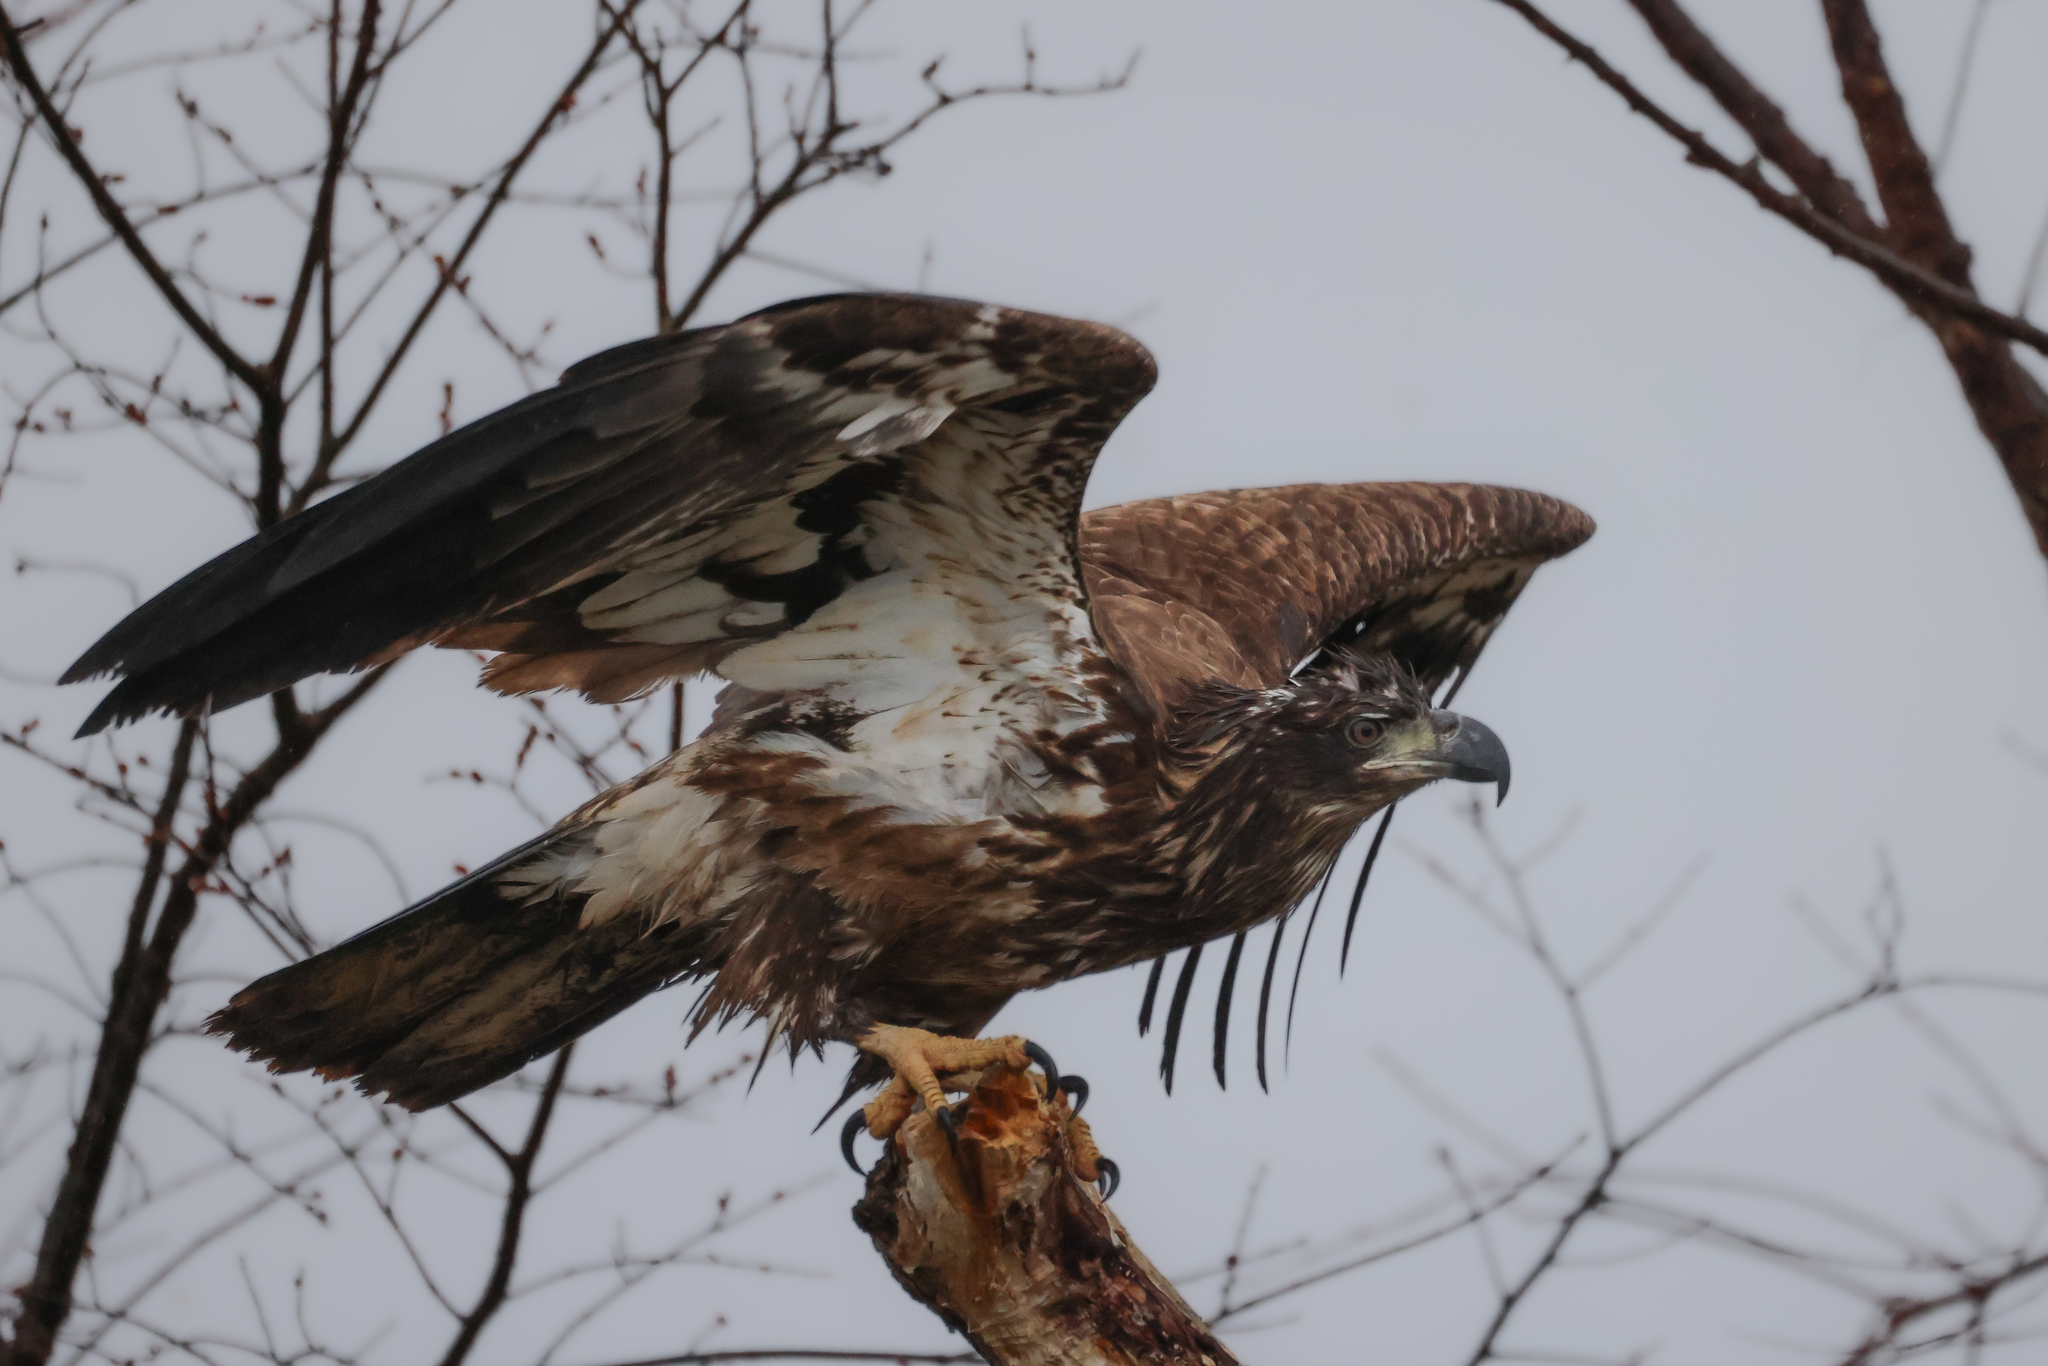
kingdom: Animalia
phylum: Chordata
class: Aves
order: Accipitriformes
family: Accipitridae
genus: Haliaeetus
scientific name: Haliaeetus leucocephalus
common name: Bald eagle
